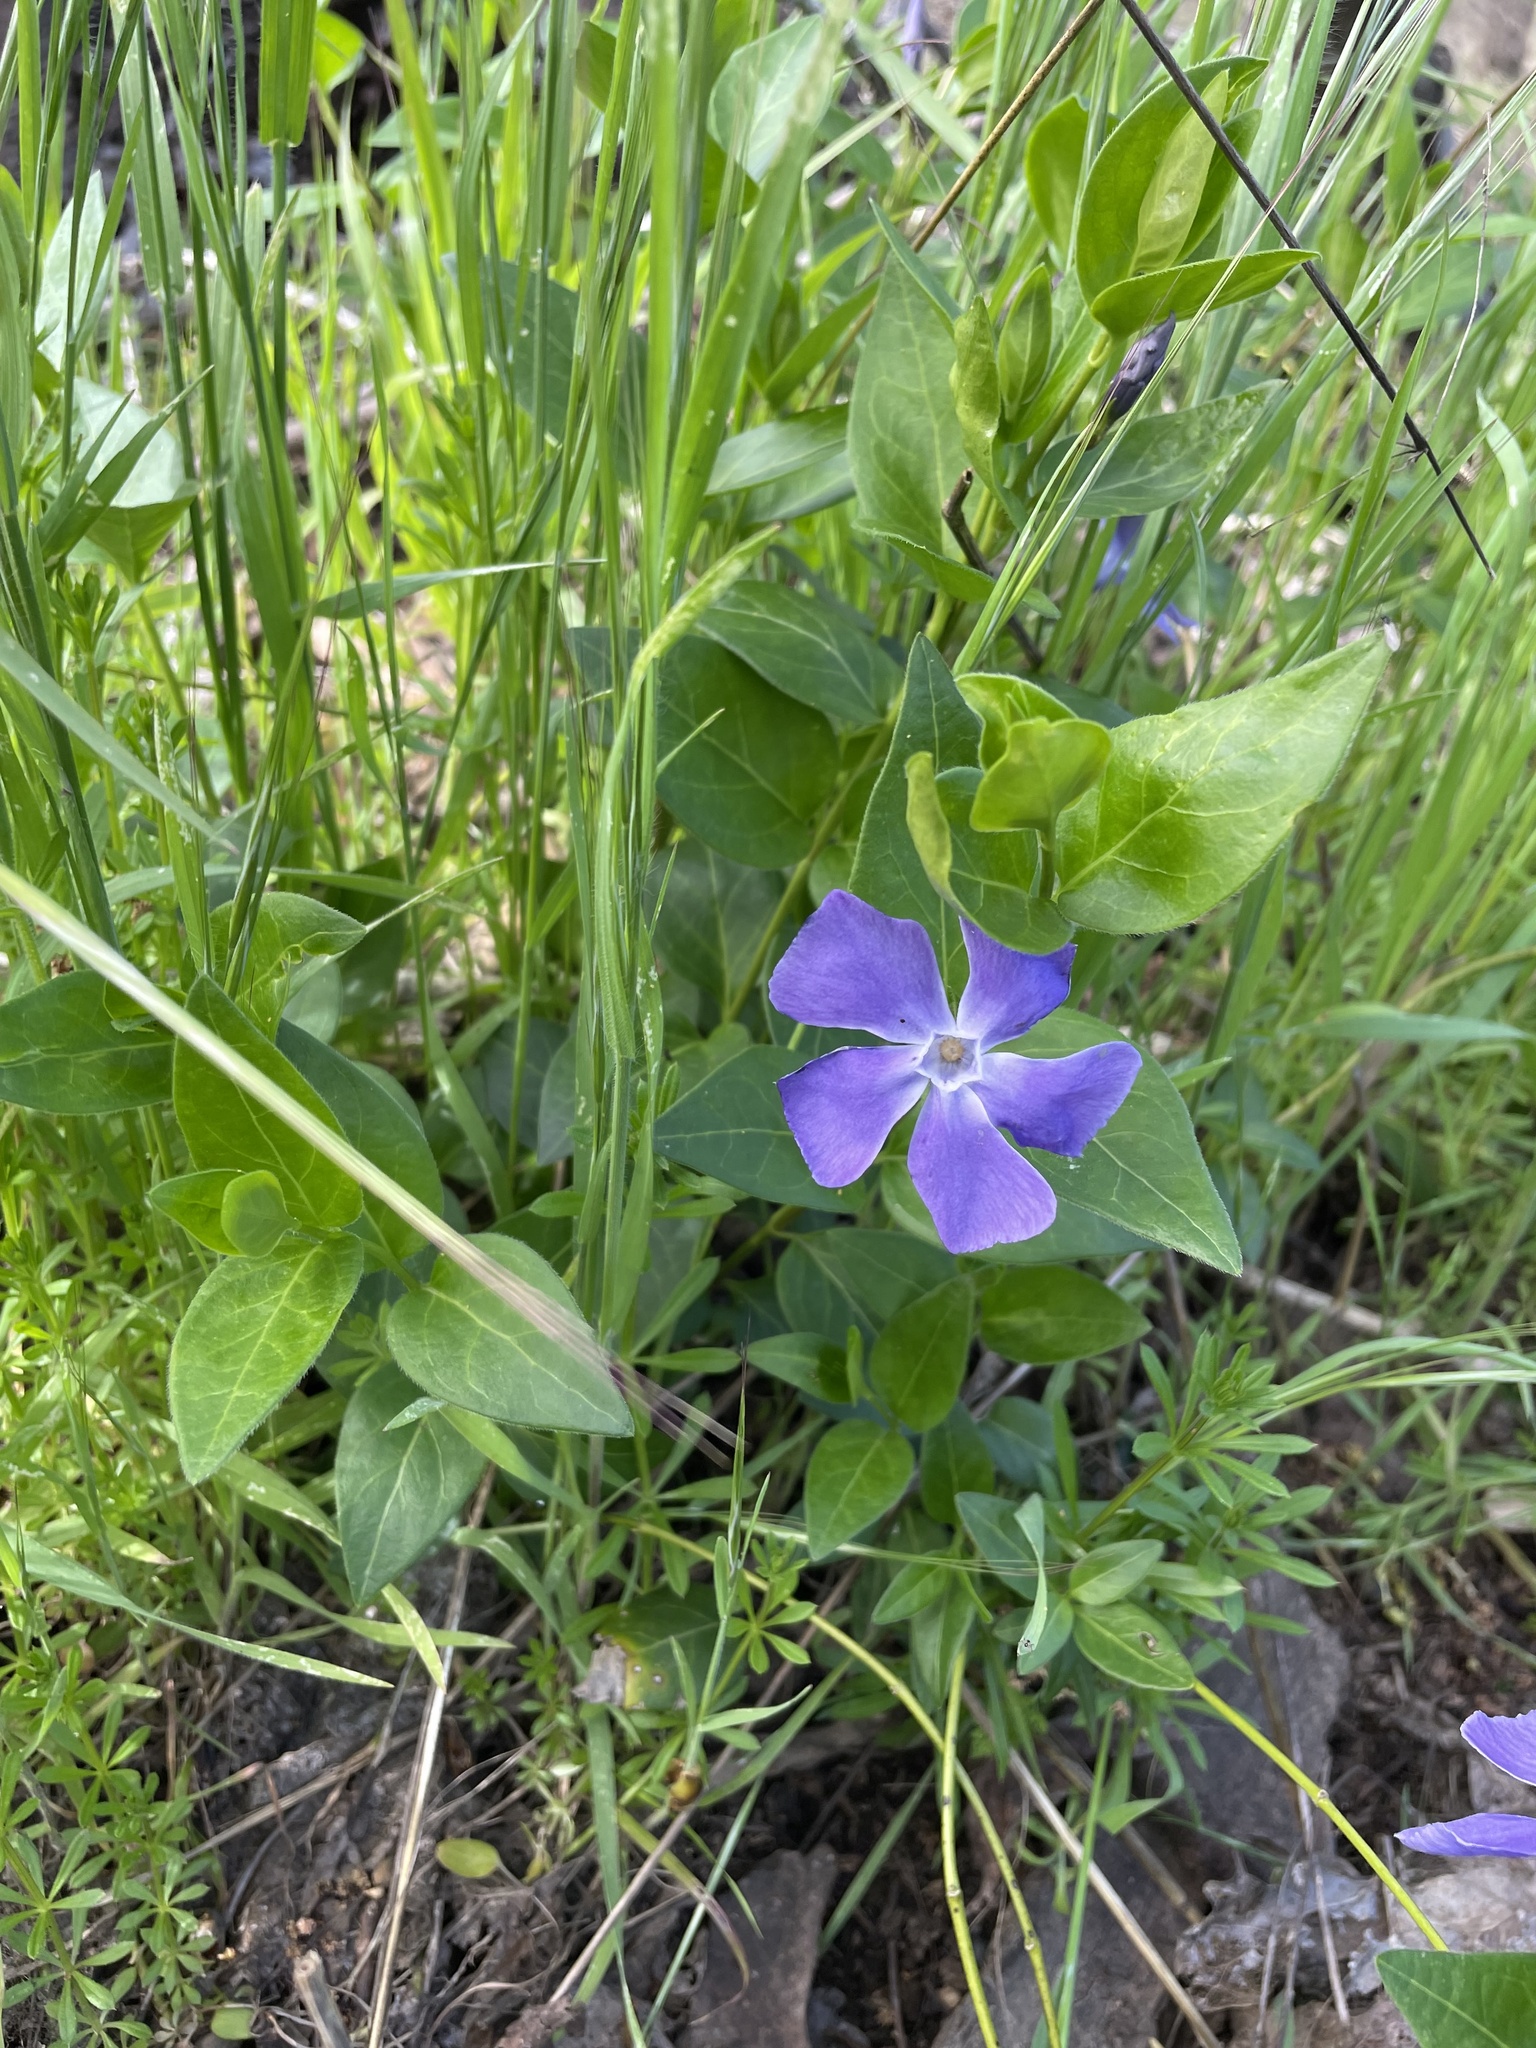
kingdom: Plantae
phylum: Tracheophyta
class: Magnoliopsida
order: Gentianales
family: Apocynaceae
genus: Vinca
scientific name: Vinca major
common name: Greater periwinkle
